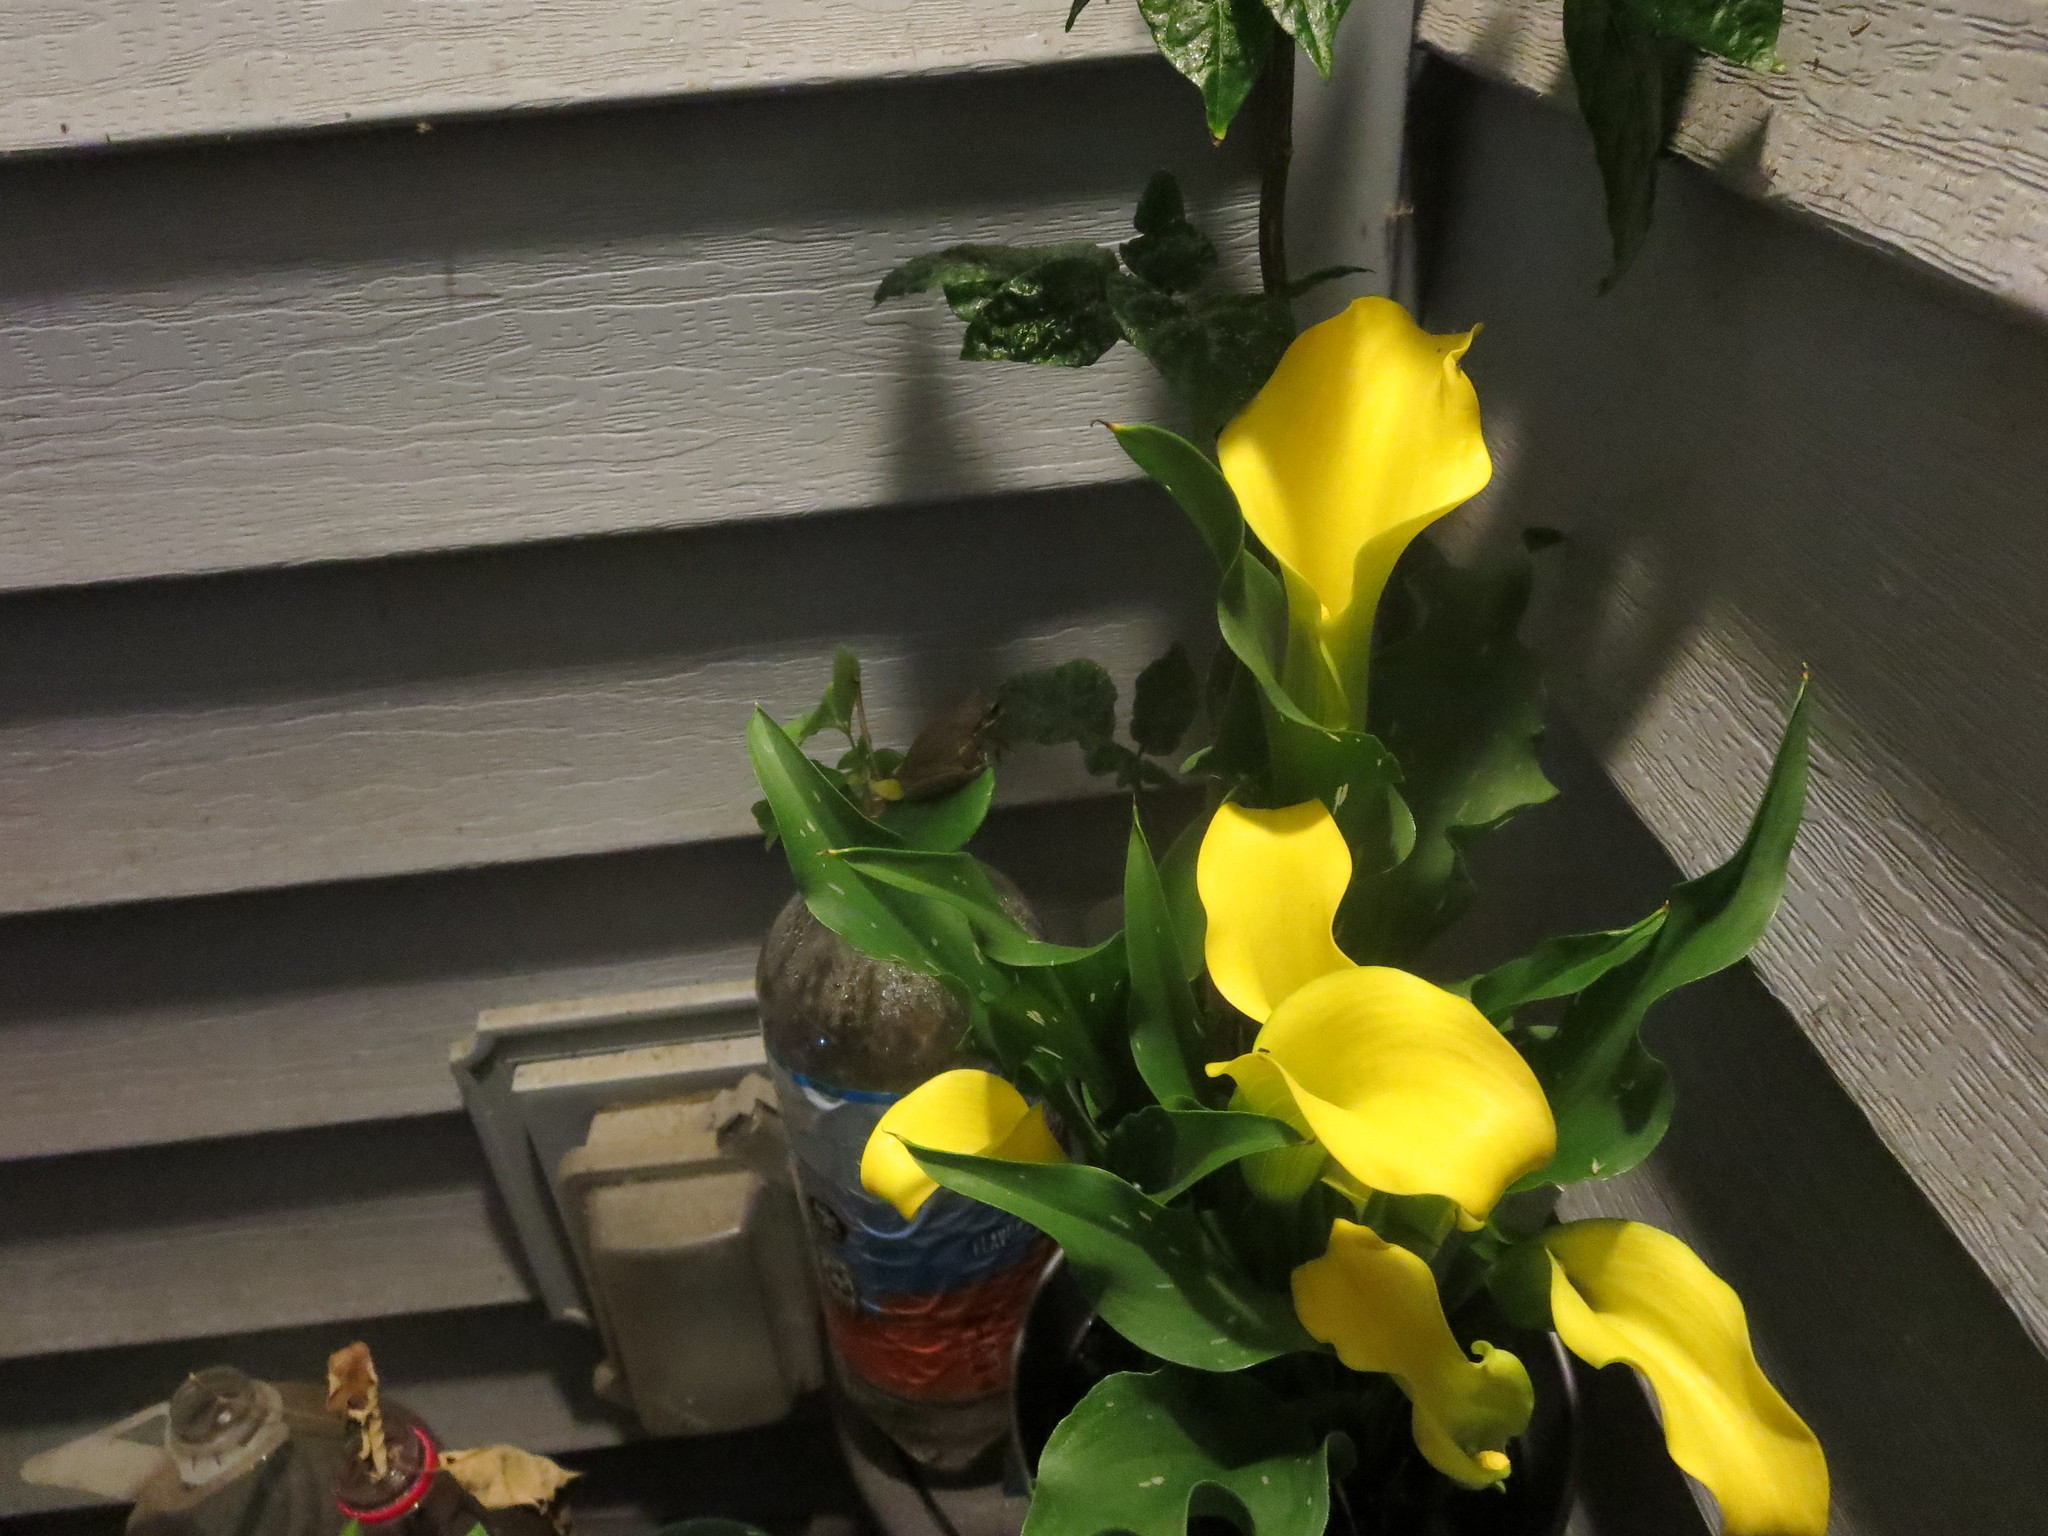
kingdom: Animalia
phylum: Chordata
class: Amphibia
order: Anura
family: Hylidae
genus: Dryophytes
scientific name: Dryophytes squirellus
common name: Squirrel treefrog
